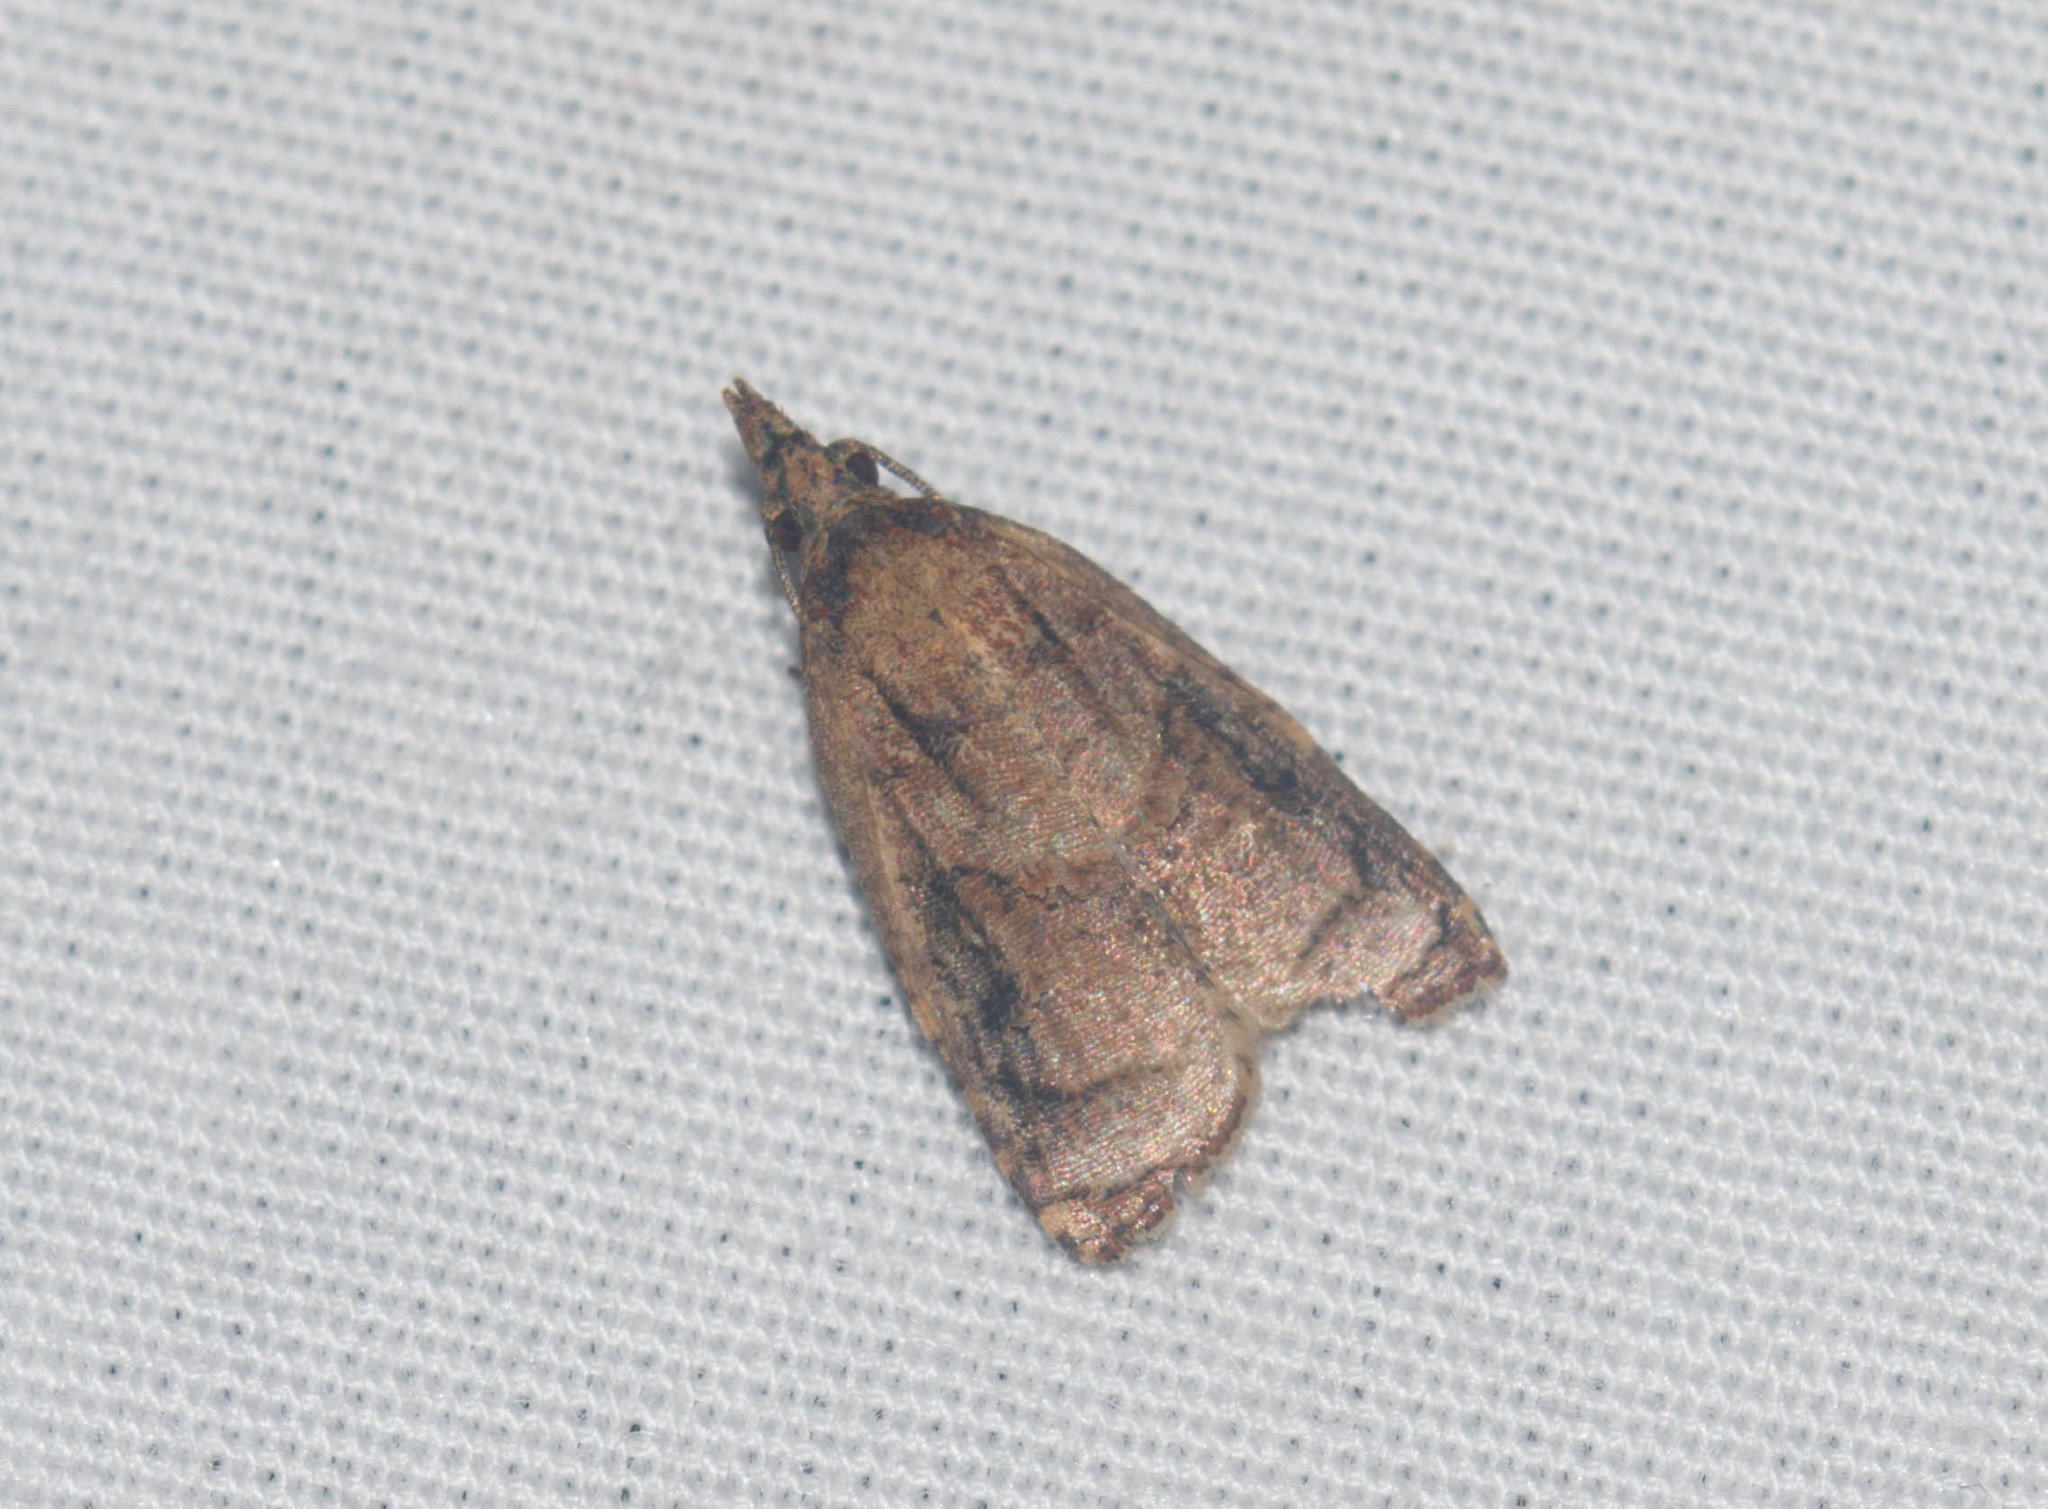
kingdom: Animalia
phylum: Arthropoda
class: Insecta
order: Lepidoptera
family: Tortricidae
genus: Platynota
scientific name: Platynota rostrana
